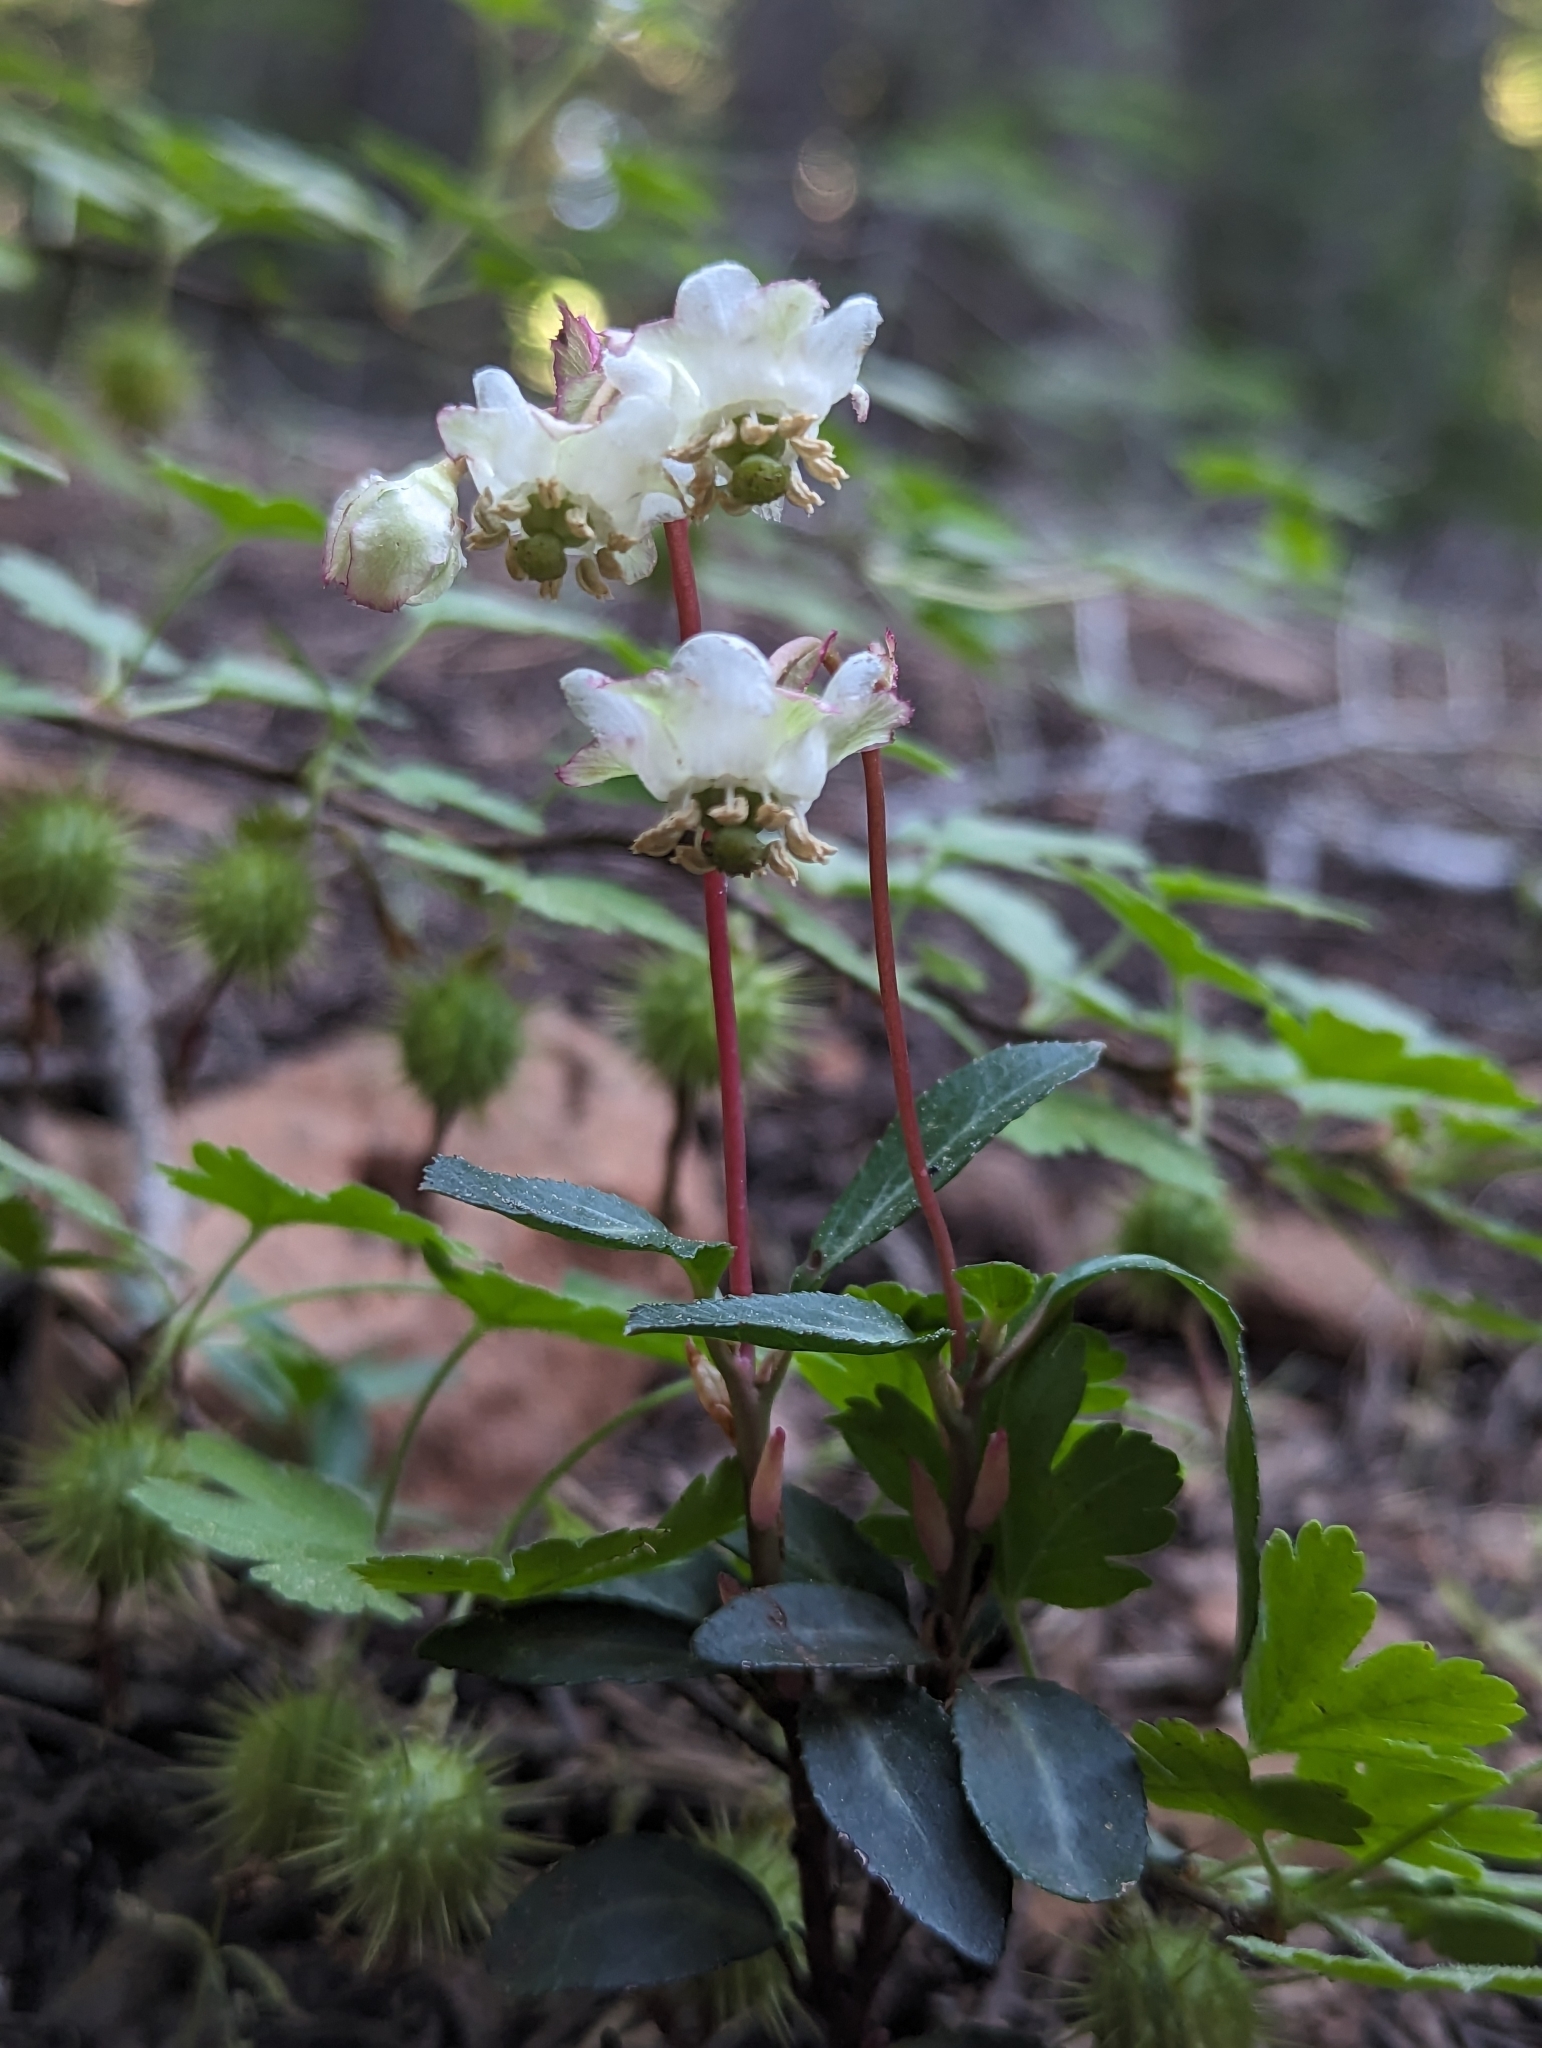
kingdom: Plantae
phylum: Tracheophyta
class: Magnoliopsida
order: Ericales
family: Ericaceae
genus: Chimaphila
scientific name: Chimaphila menziesii
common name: Menzies' pipsissewa
